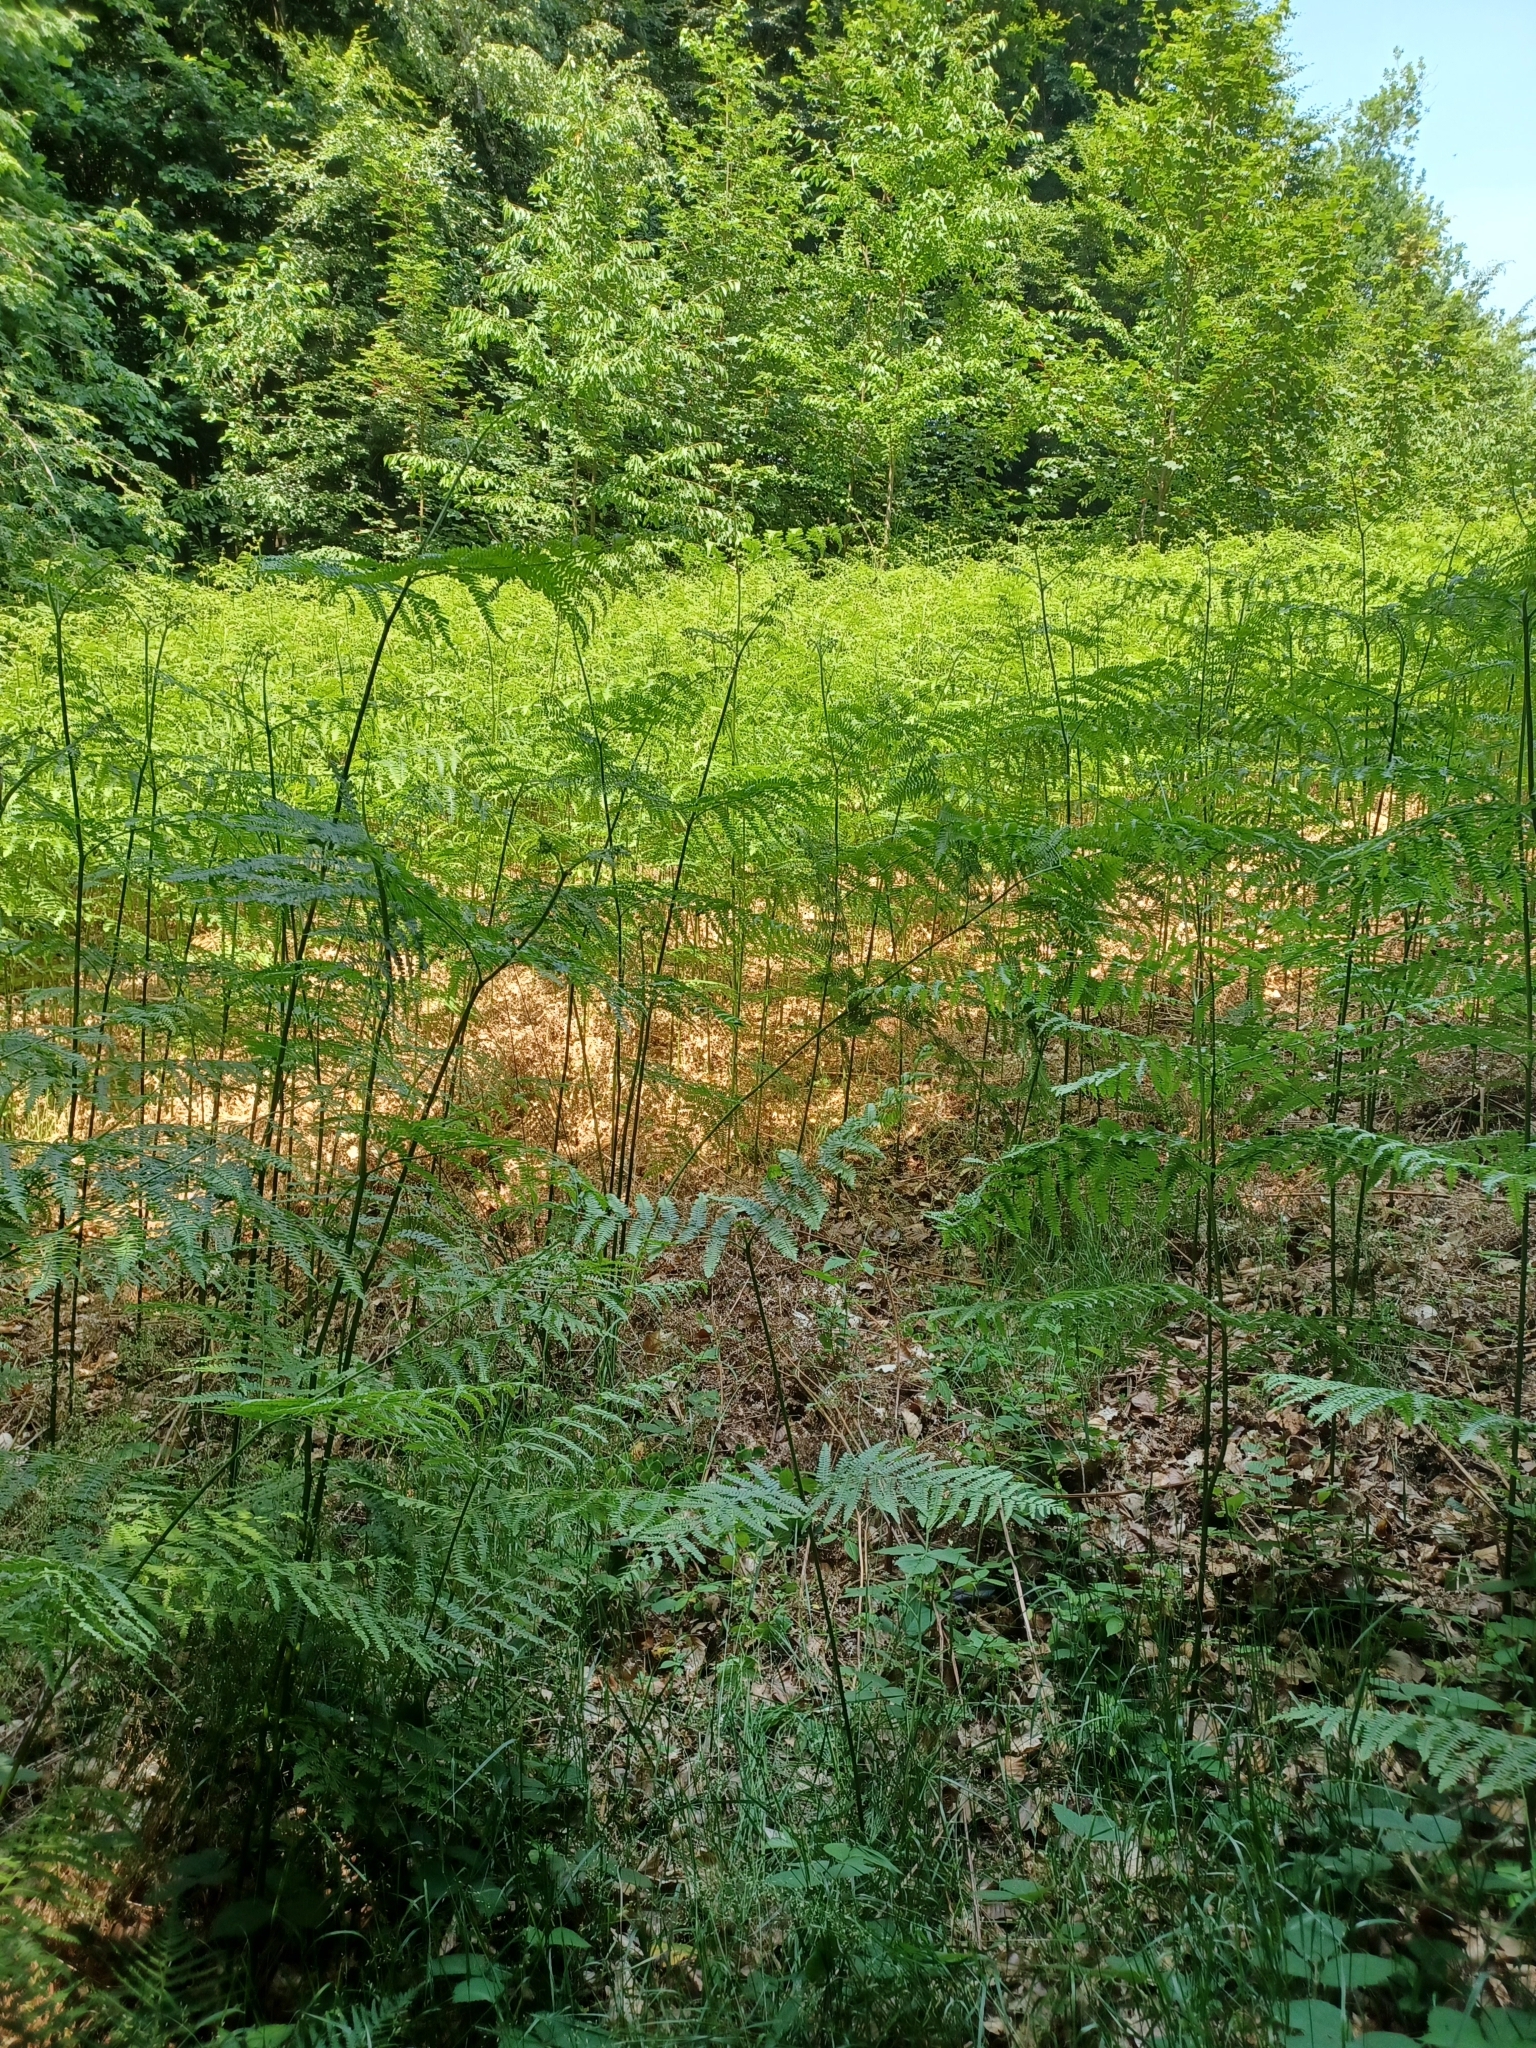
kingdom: Plantae
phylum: Tracheophyta
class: Polypodiopsida
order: Polypodiales
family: Dennstaedtiaceae
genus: Pteridium
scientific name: Pteridium aquilinum
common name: Bracken
